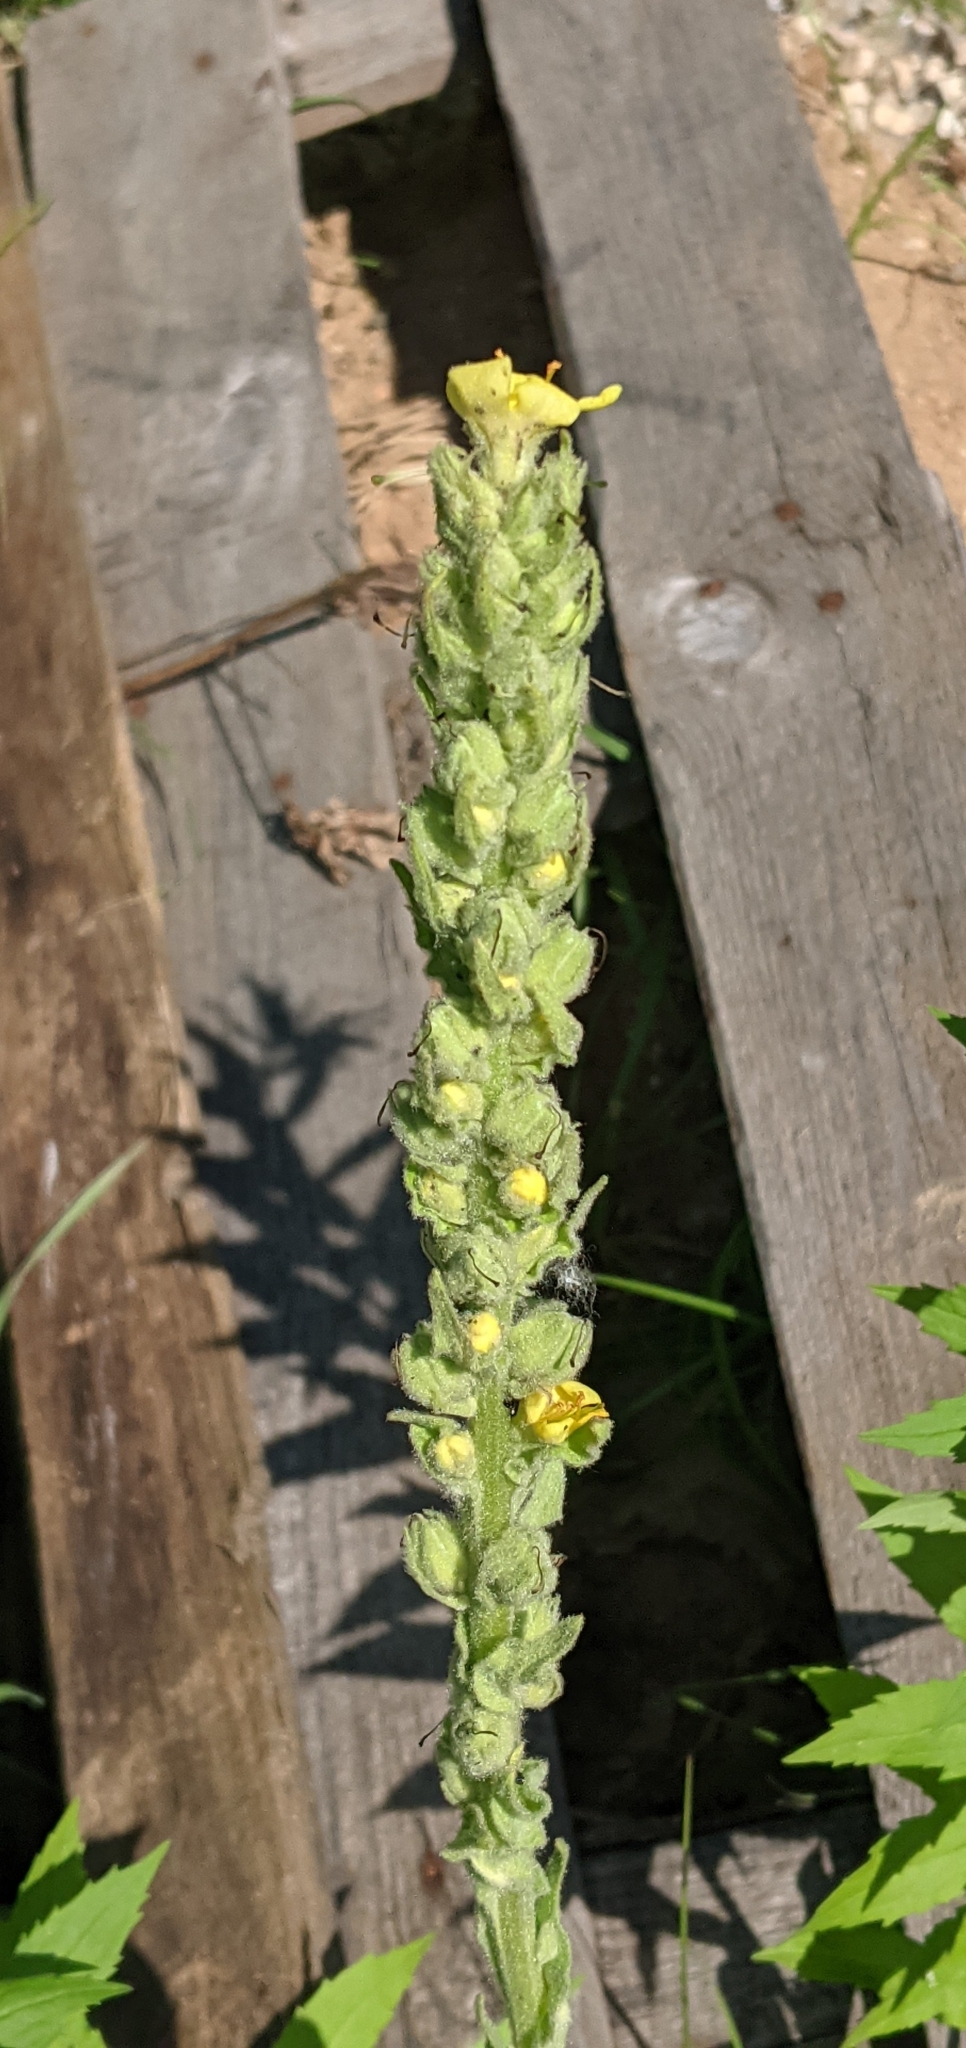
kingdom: Plantae
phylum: Tracheophyta
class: Magnoliopsida
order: Lamiales
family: Scrophulariaceae
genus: Verbascum
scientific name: Verbascum thapsus
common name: Common mullein
